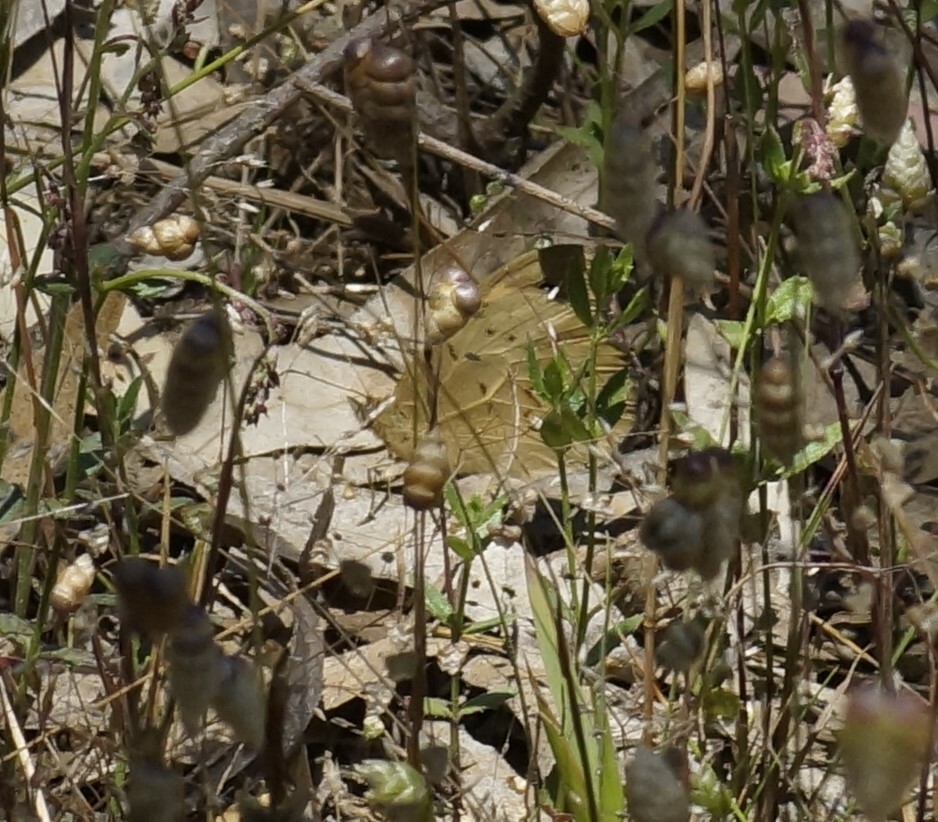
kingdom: Animalia
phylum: Arthropoda
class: Insecta
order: Lepidoptera
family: Nymphalidae
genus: Heteronympha
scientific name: Heteronympha merope
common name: Common brown
